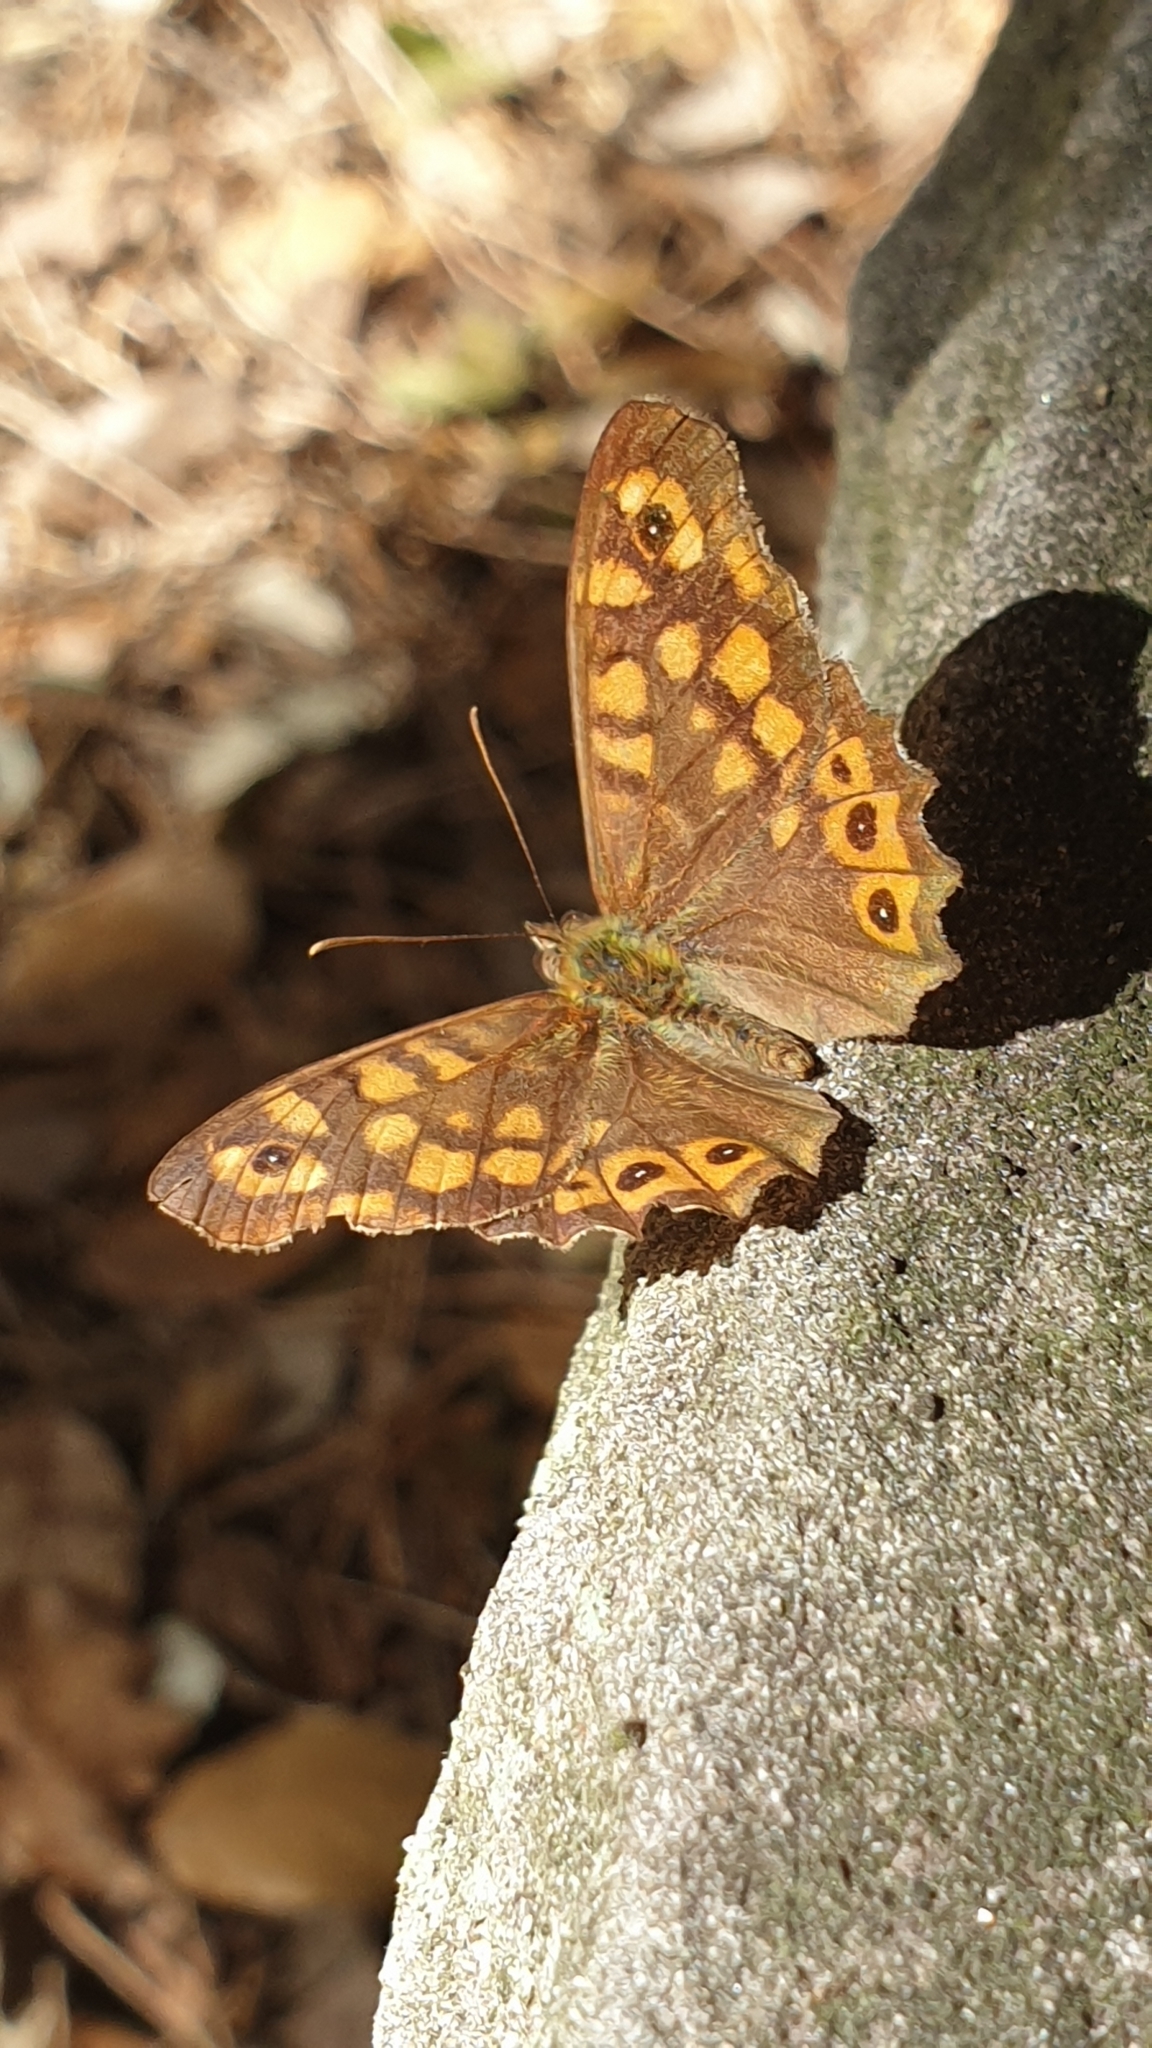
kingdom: Animalia
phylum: Arthropoda
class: Insecta
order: Lepidoptera
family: Nymphalidae
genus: Pararge
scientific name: Pararge aegeria
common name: Speckled wood
